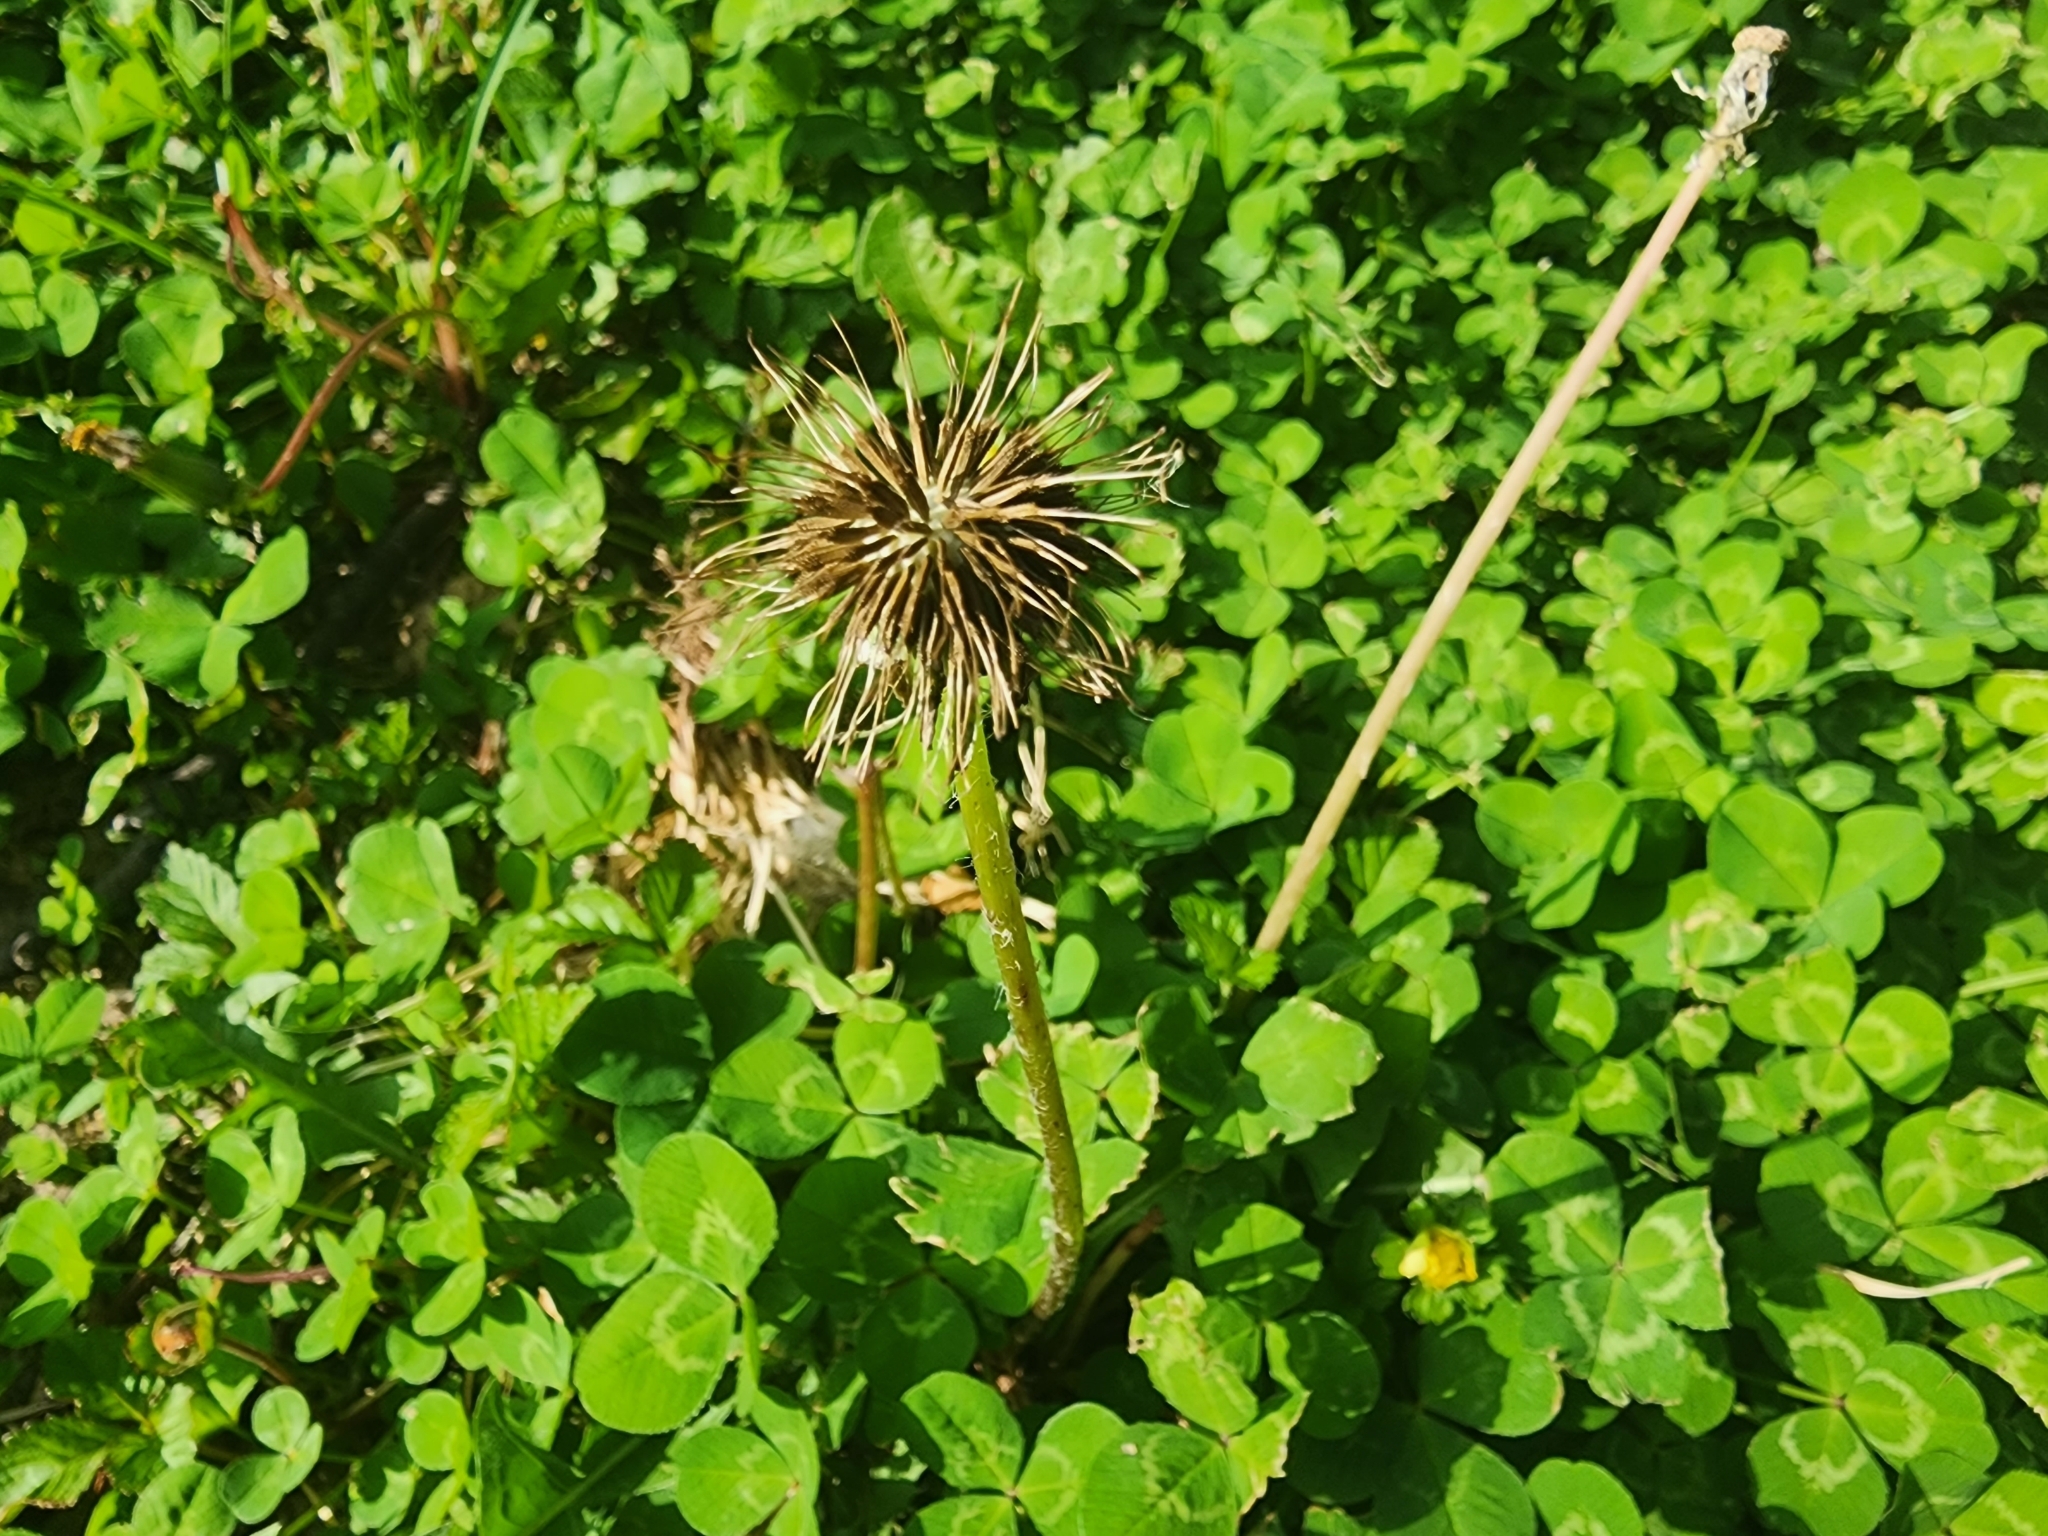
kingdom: Plantae
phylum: Tracheophyta
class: Magnoliopsida
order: Asterales
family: Asteraceae
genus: Taraxacum
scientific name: Taraxacum officinale
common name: Common dandelion
